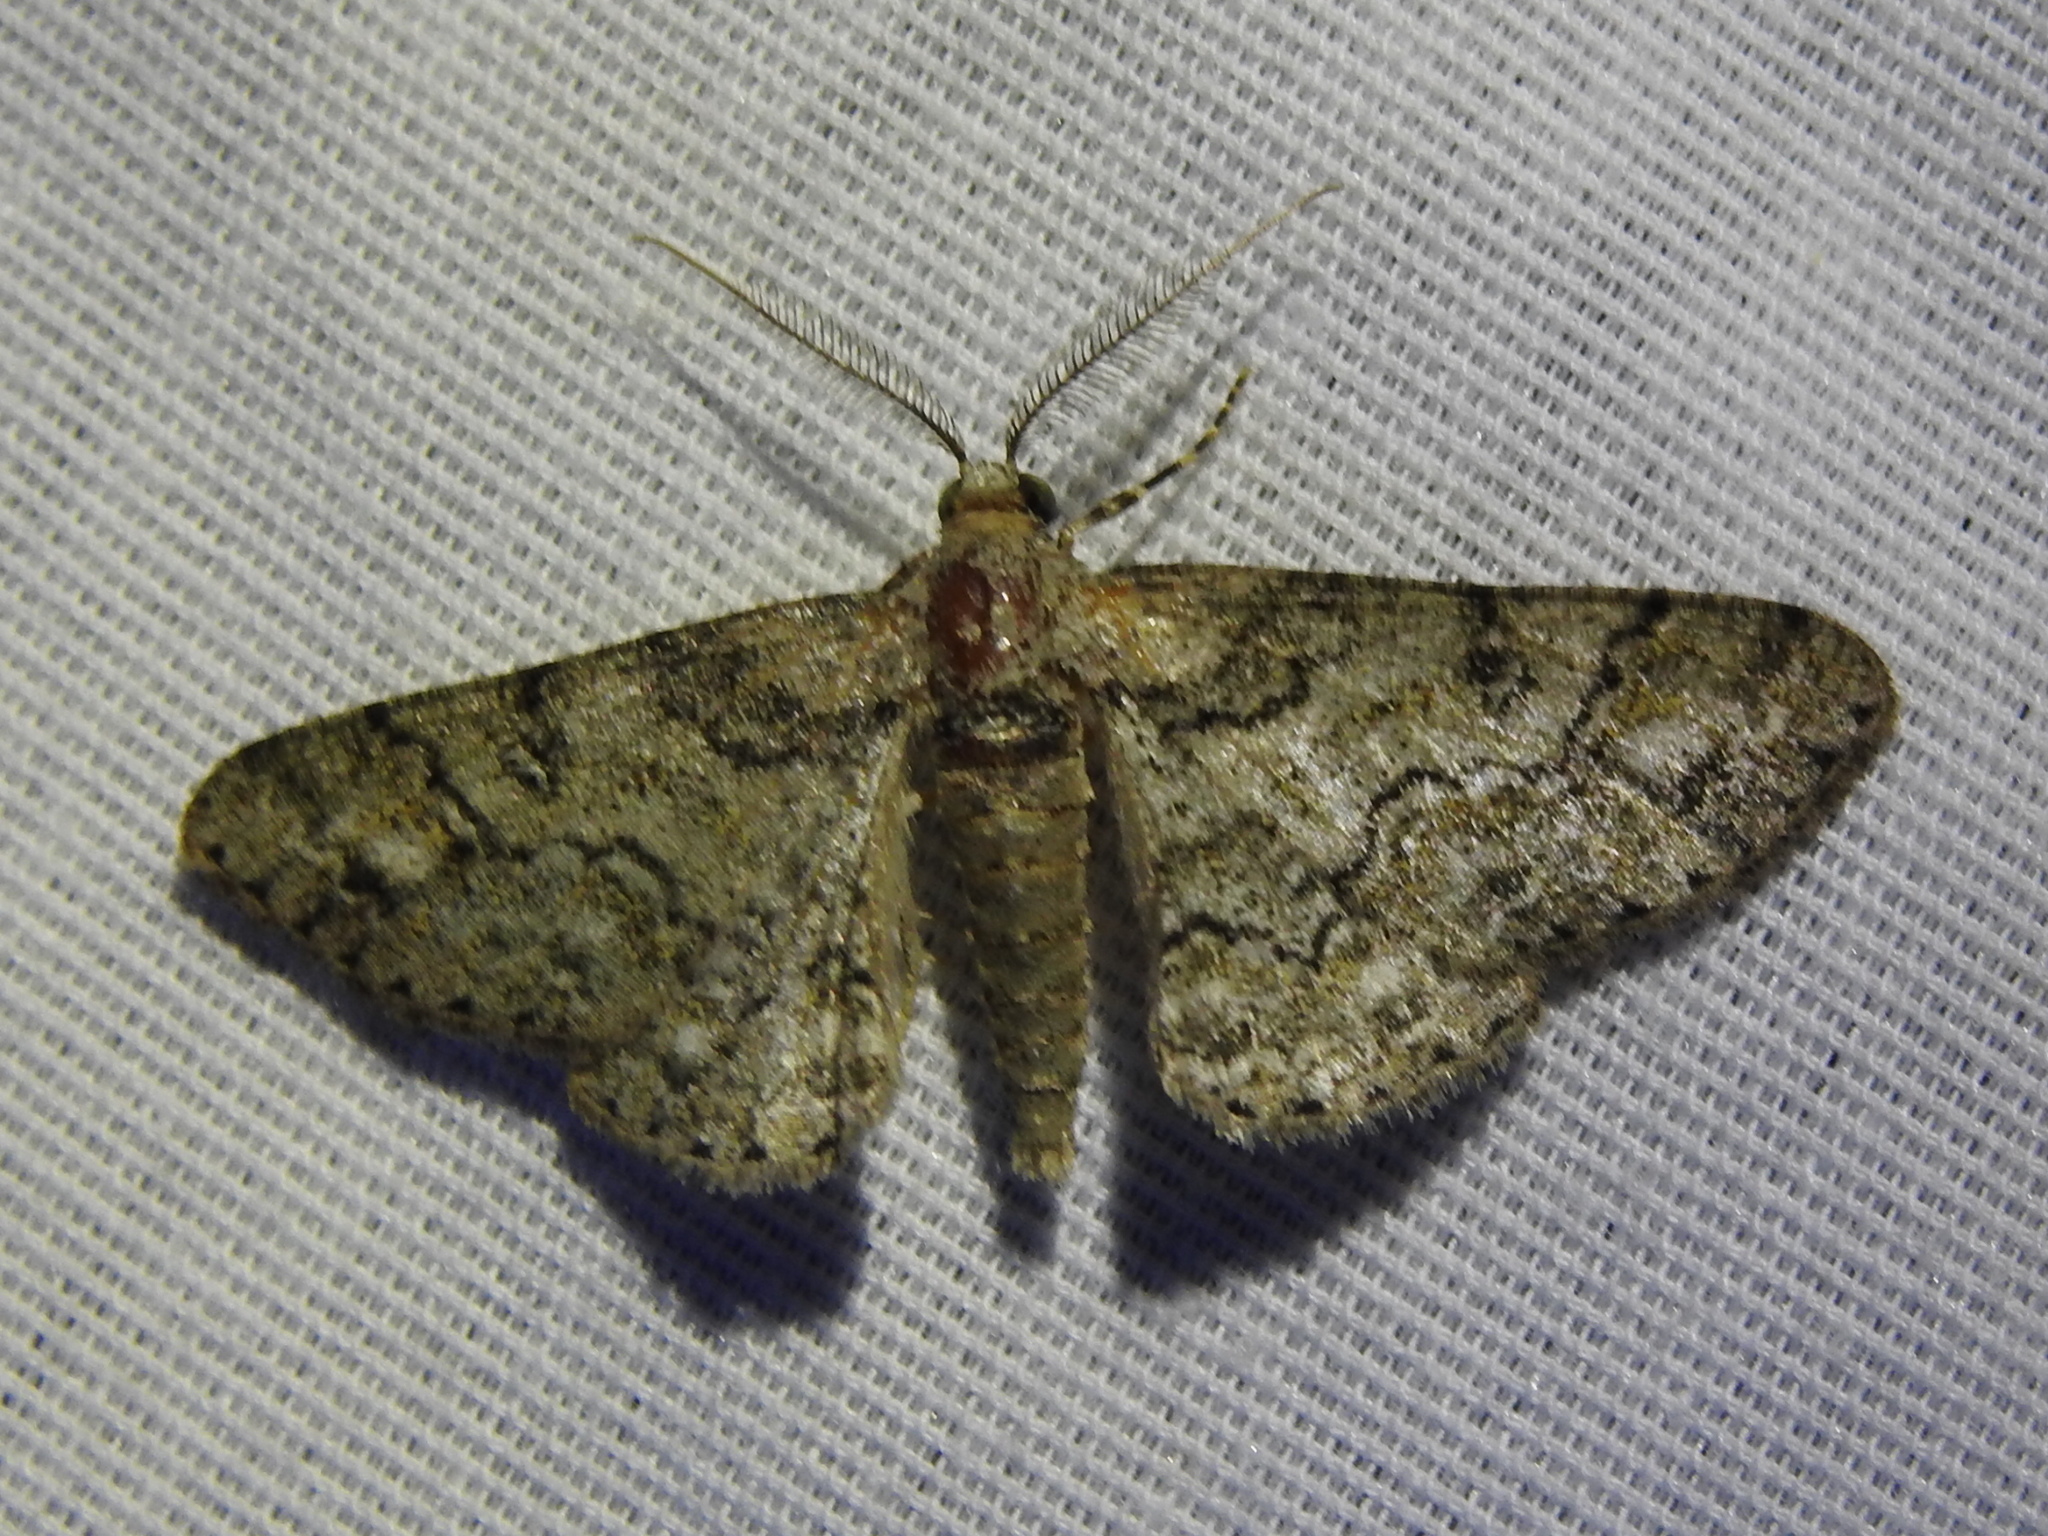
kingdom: Animalia
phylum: Arthropoda
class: Insecta
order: Lepidoptera
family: Geometridae
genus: Glenoides
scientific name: Glenoides texanaria
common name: Texas gray
